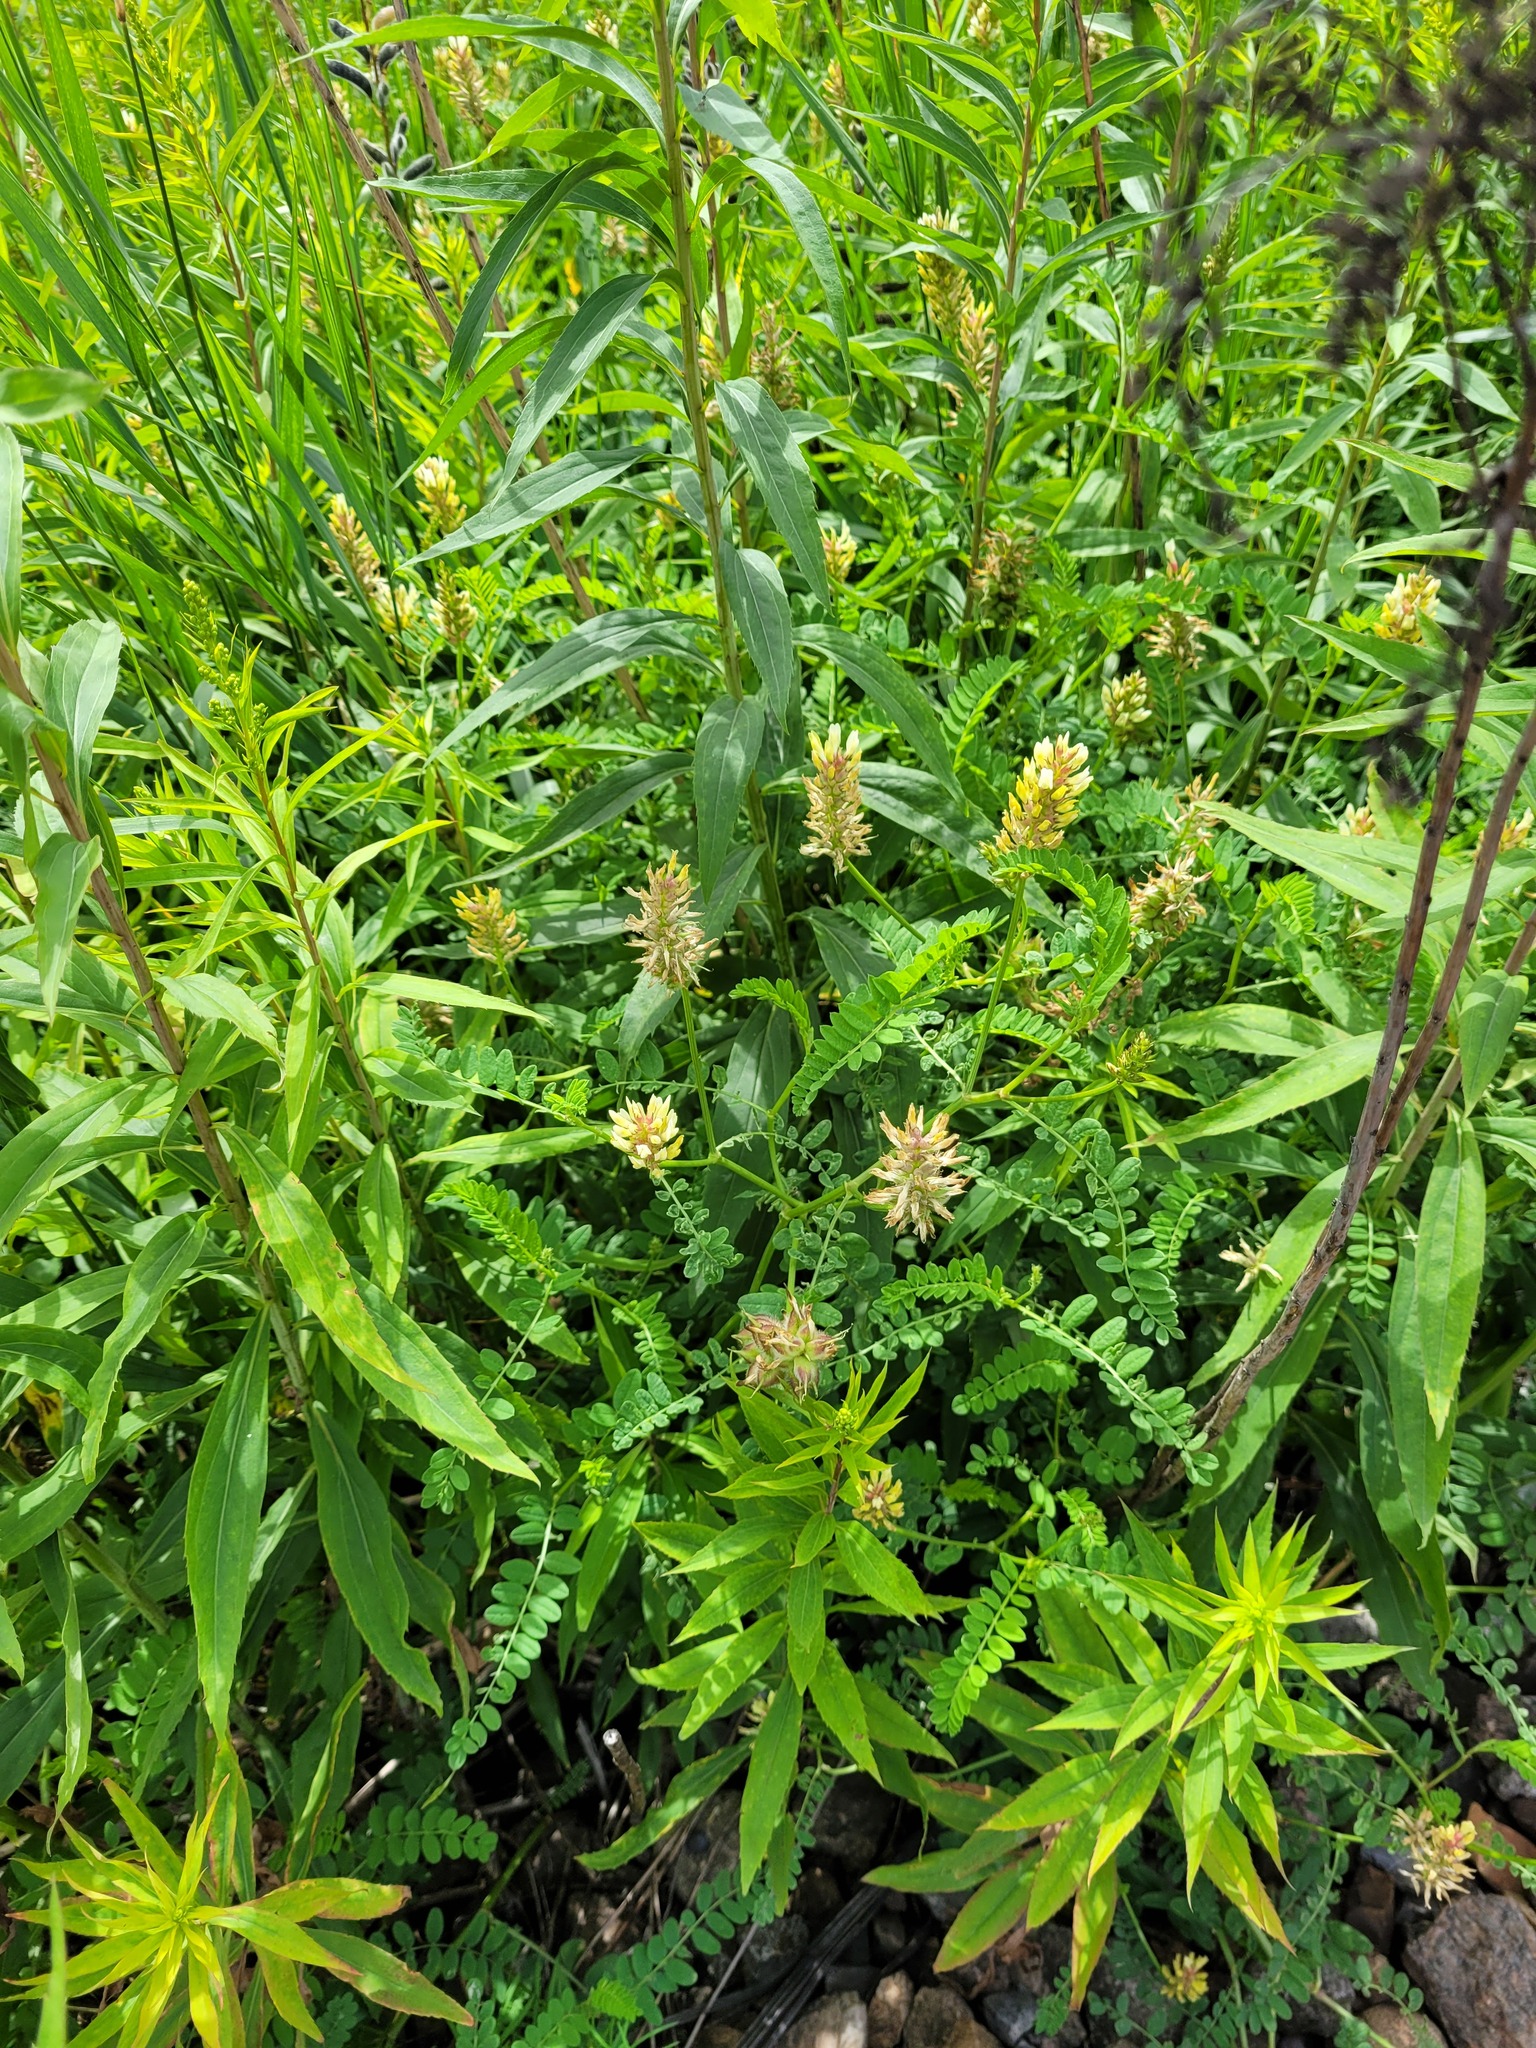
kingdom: Plantae
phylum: Tracheophyta
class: Magnoliopsida
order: Fabales
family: Fabaceae
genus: Astragalus
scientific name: Astragalus cicer
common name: Chick-pea milk-vetch
